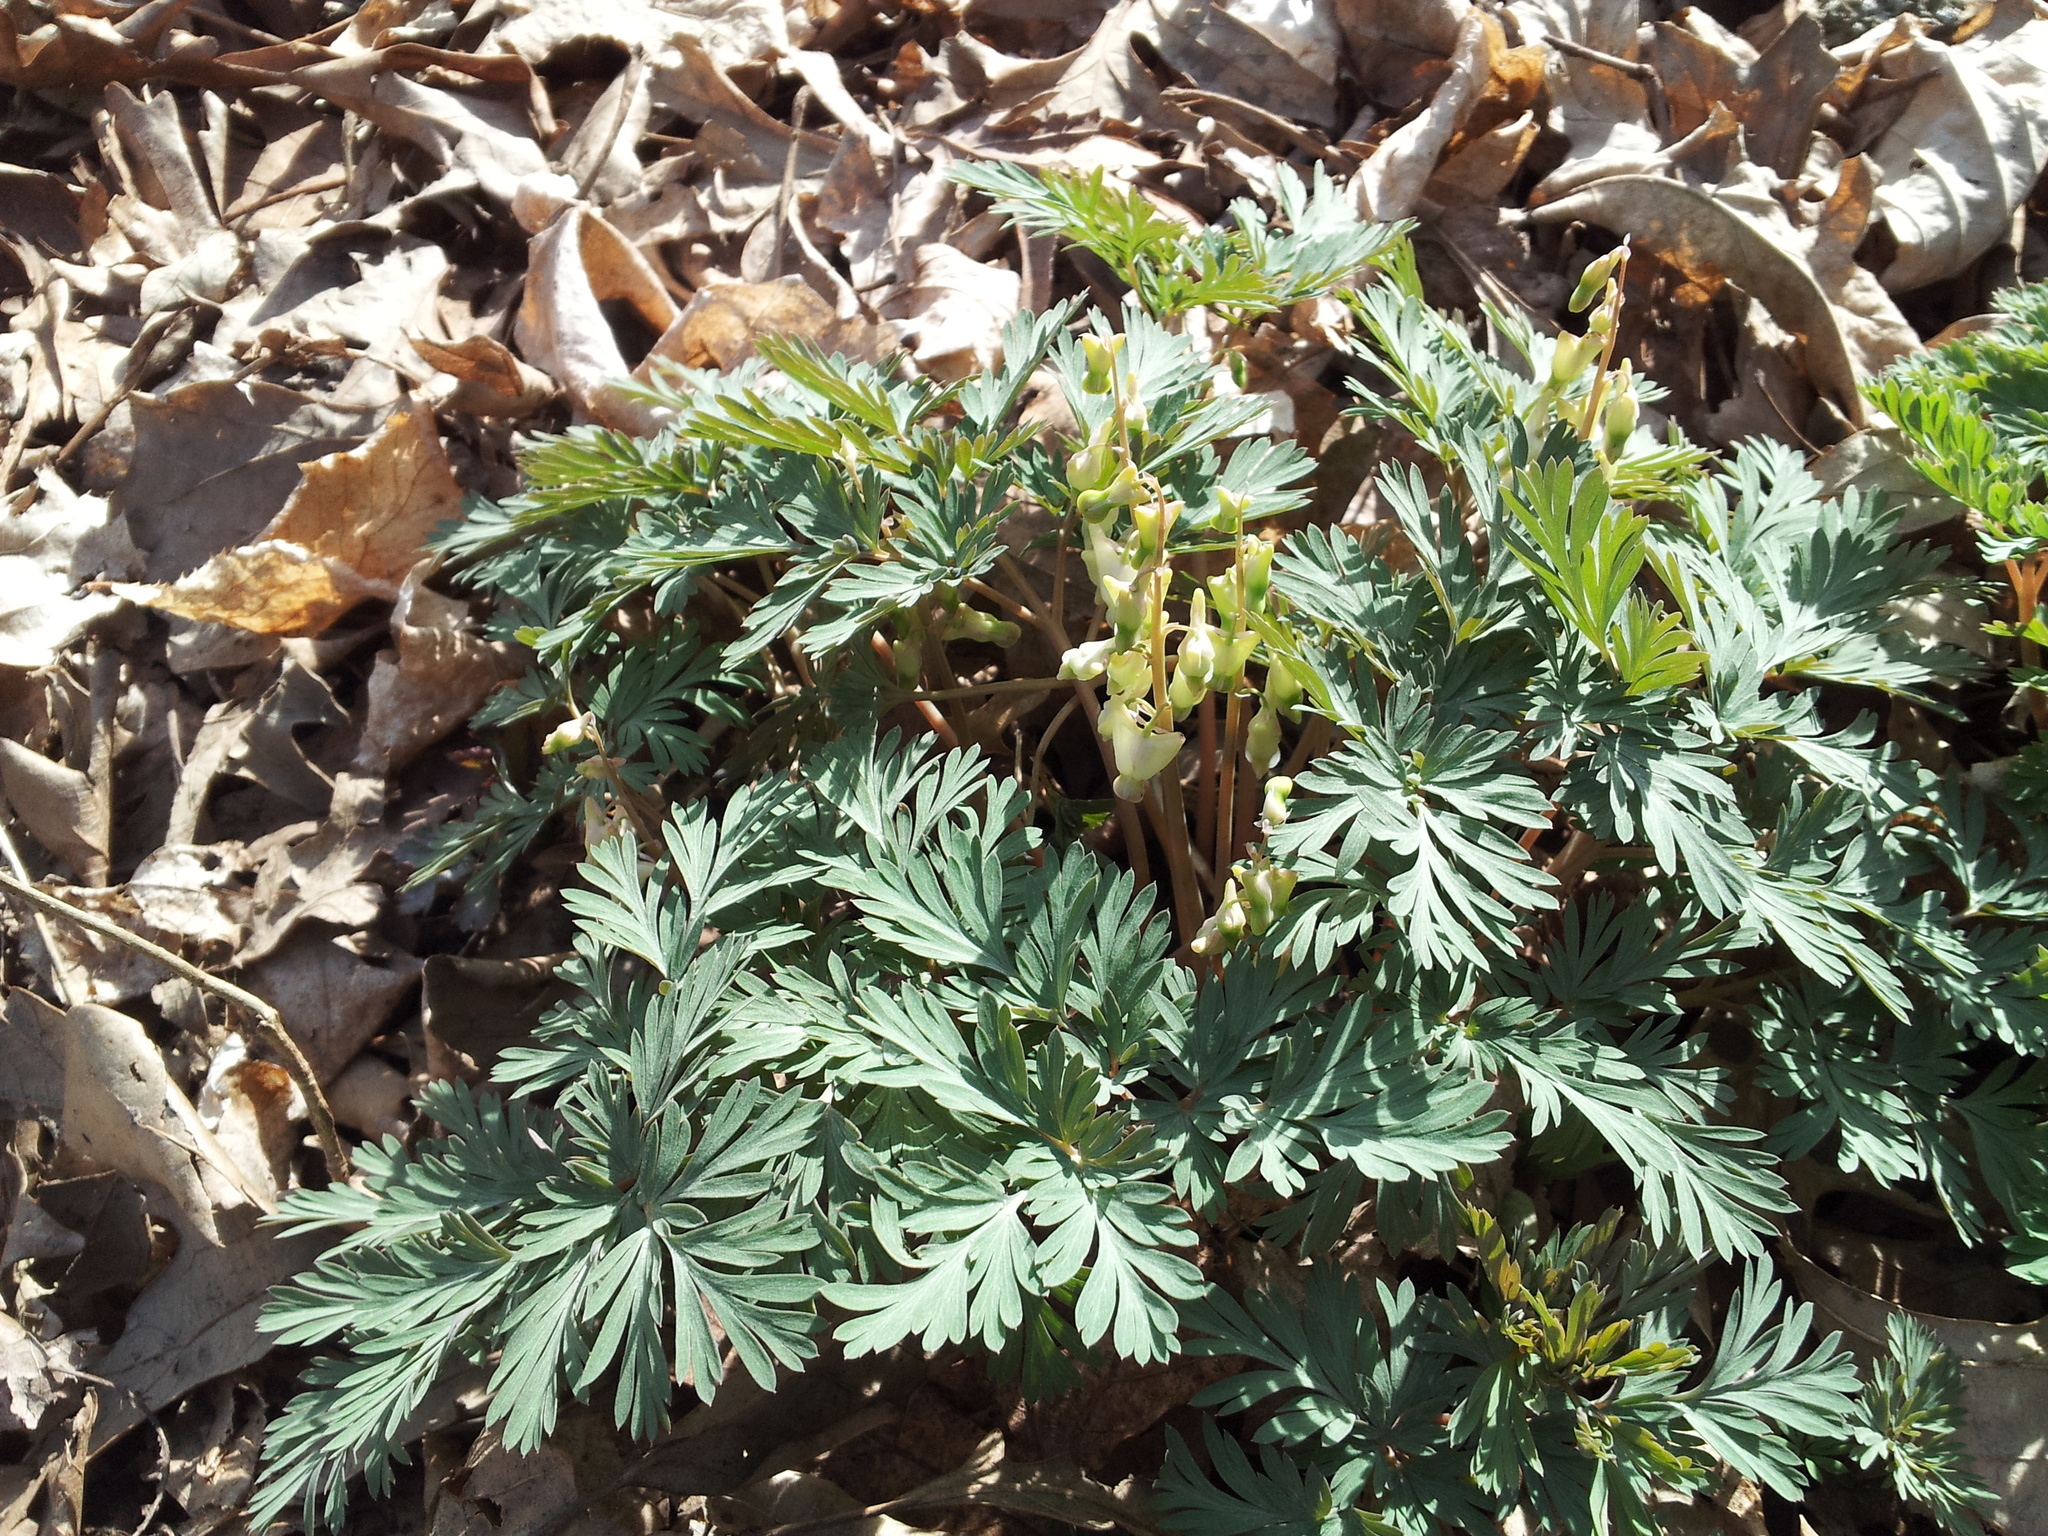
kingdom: Plantae
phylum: Tracheophyta
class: Magnoliopsida
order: Ranunculales
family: Papaveraceae
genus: Dicentra
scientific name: Dicentra cucullaria
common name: Dutchman's breeches
